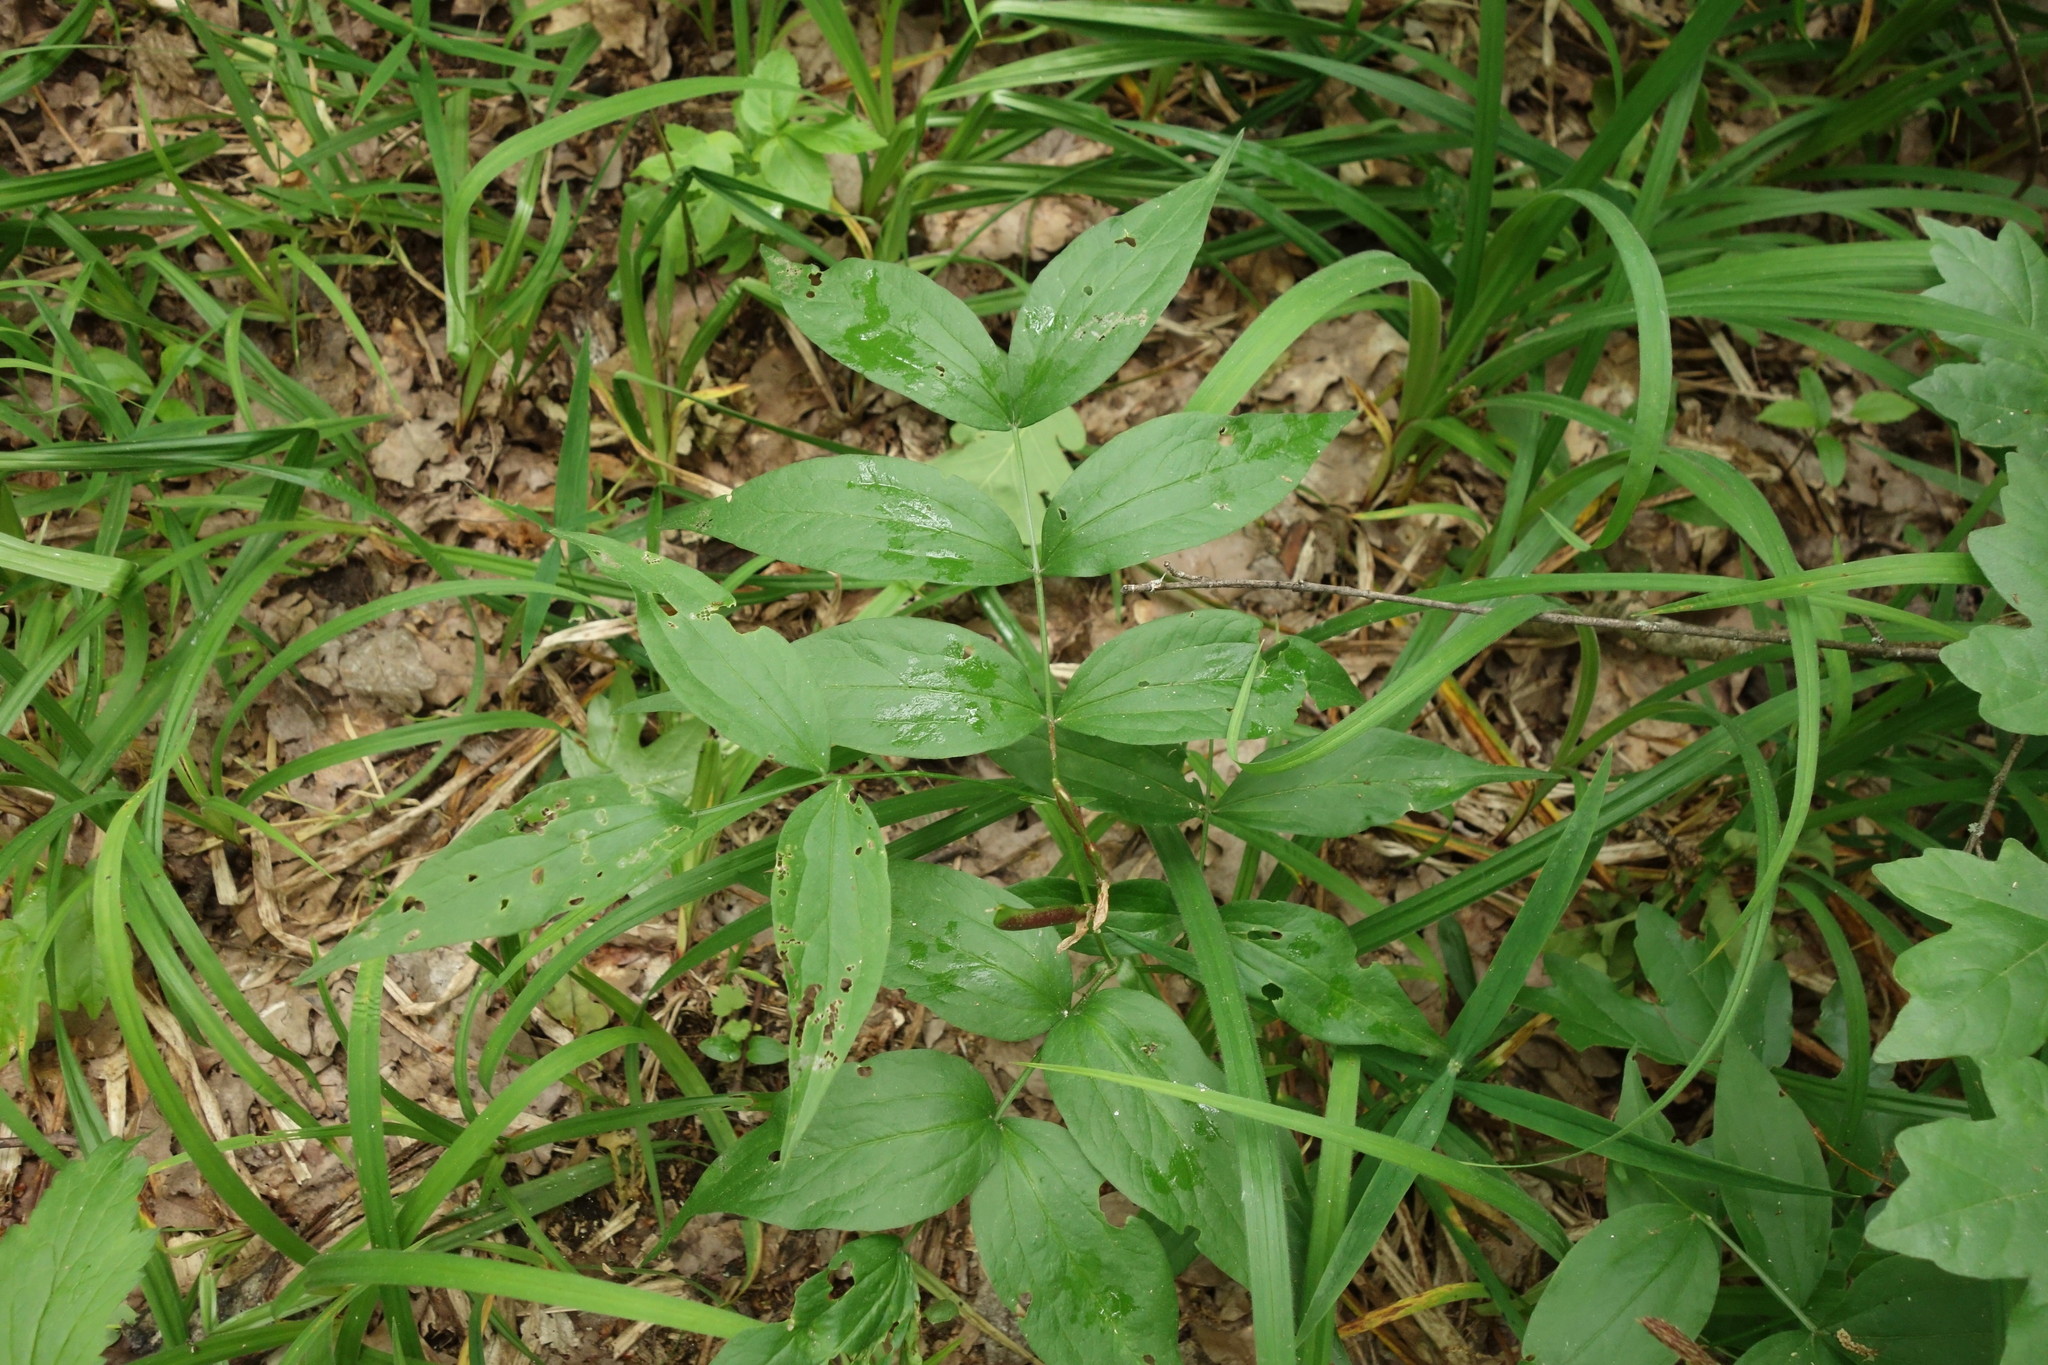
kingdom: Plantae
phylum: Tracheophyta
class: Magnoliopsida
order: Fabales
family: Fabaceae
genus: Lathyrus
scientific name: Lathyrus vernus
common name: Spring pea
